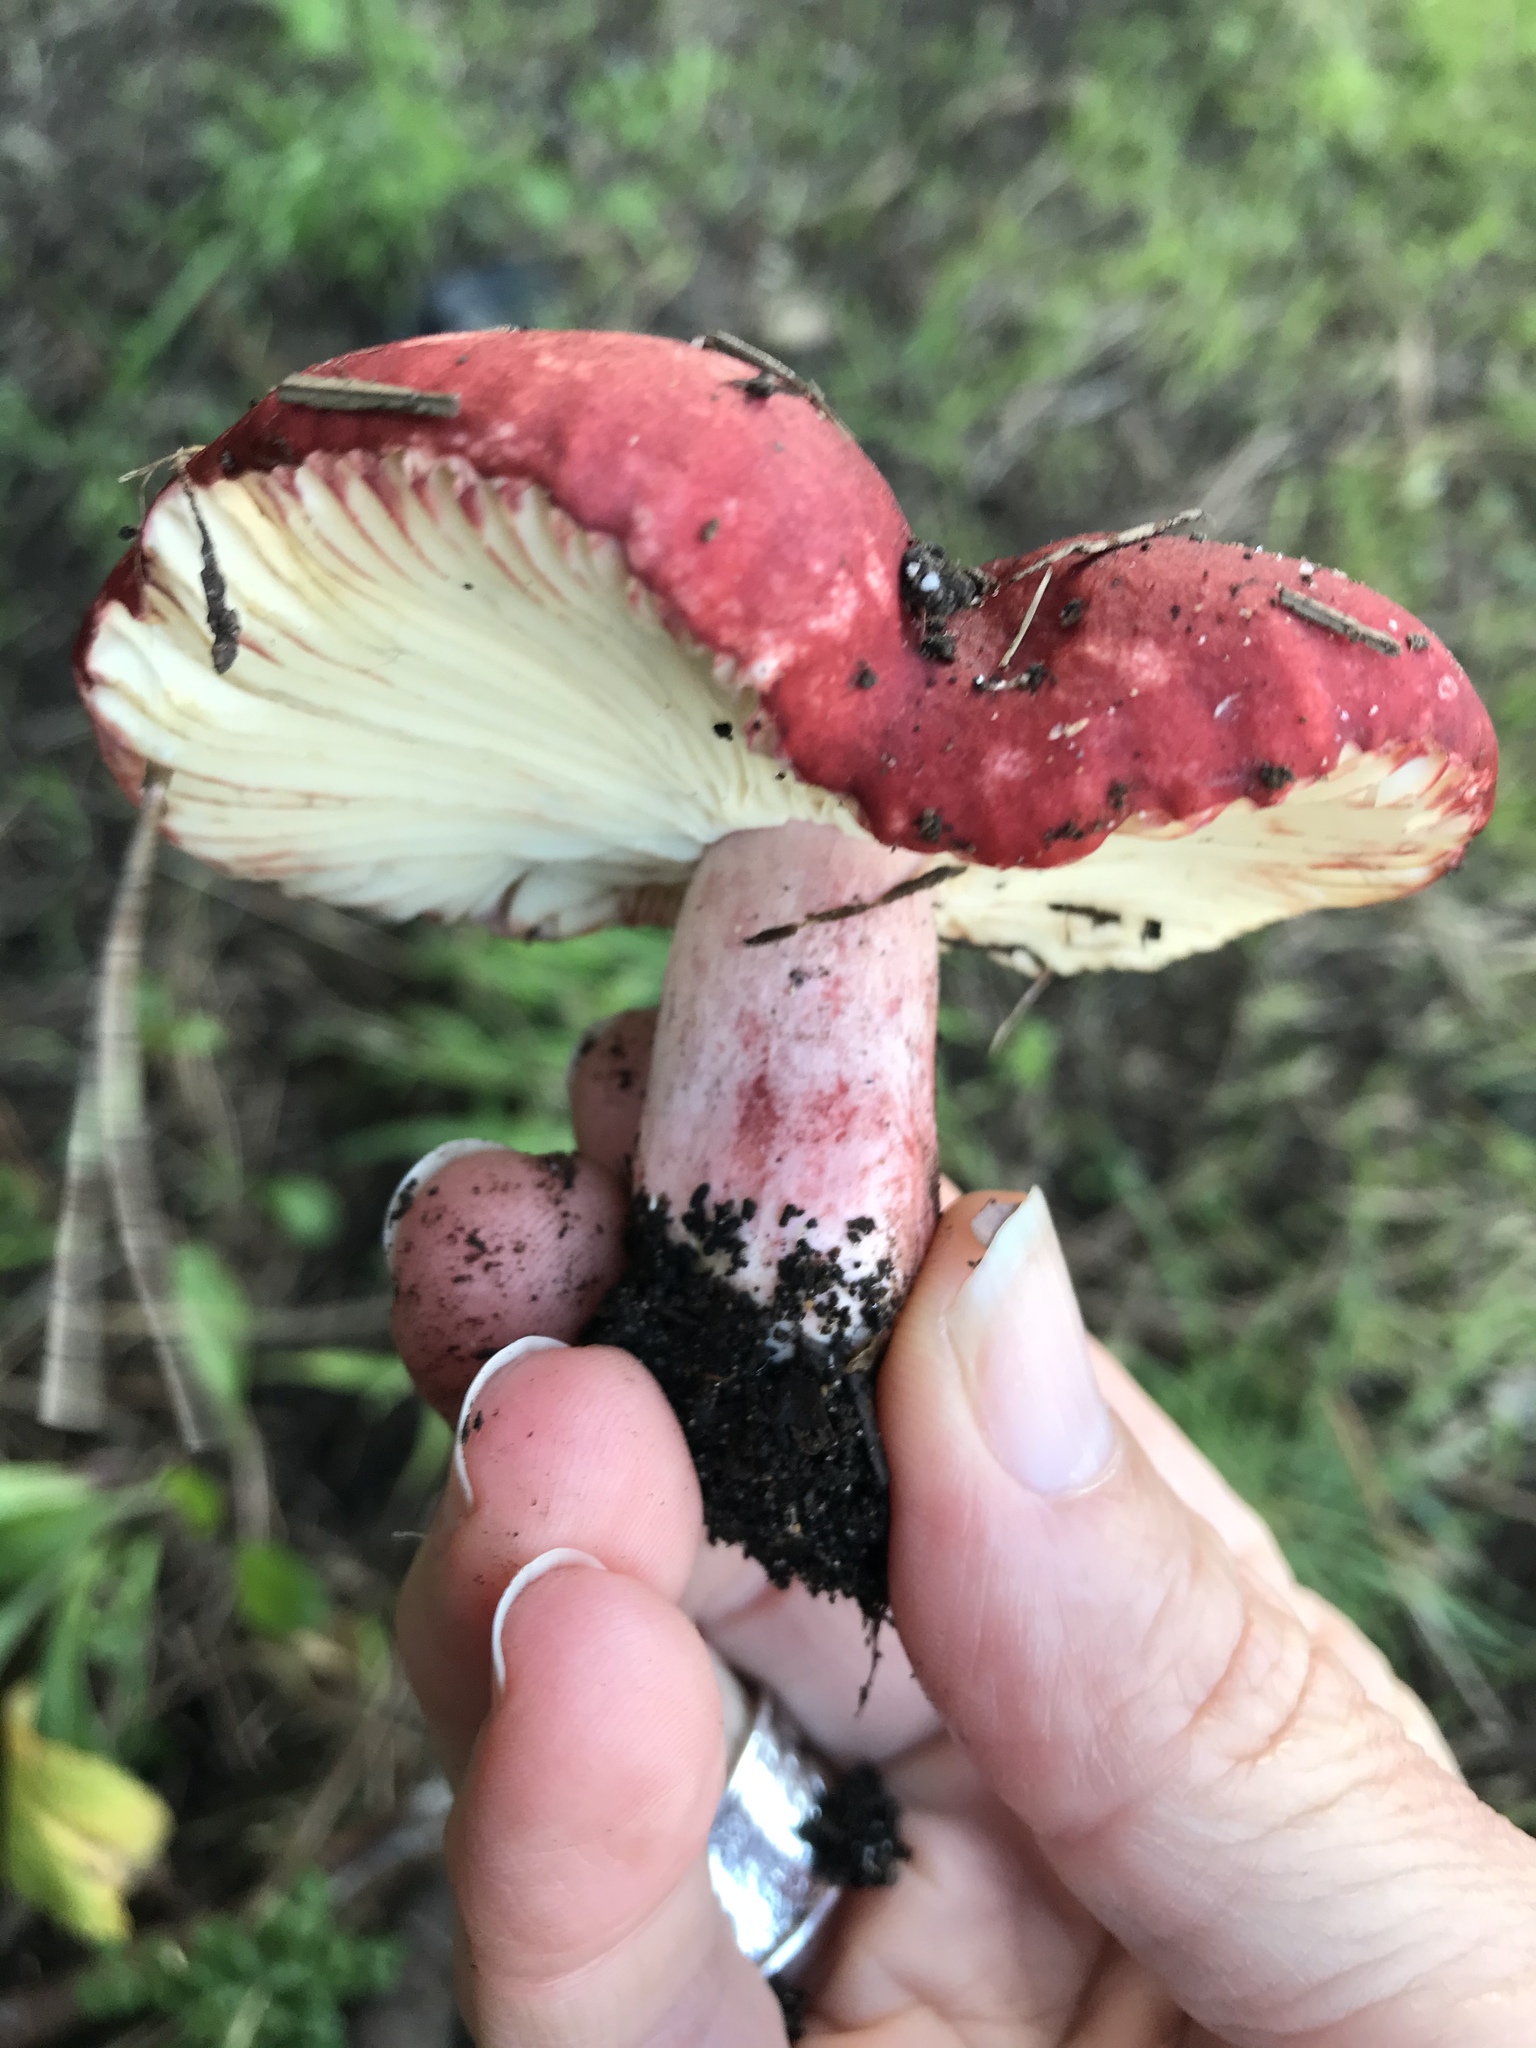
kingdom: Fungi
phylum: Basidiomycota
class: Agaricomycetes
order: Russulales
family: Russulaceae
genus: Russula
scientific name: Russula rhodocephala
